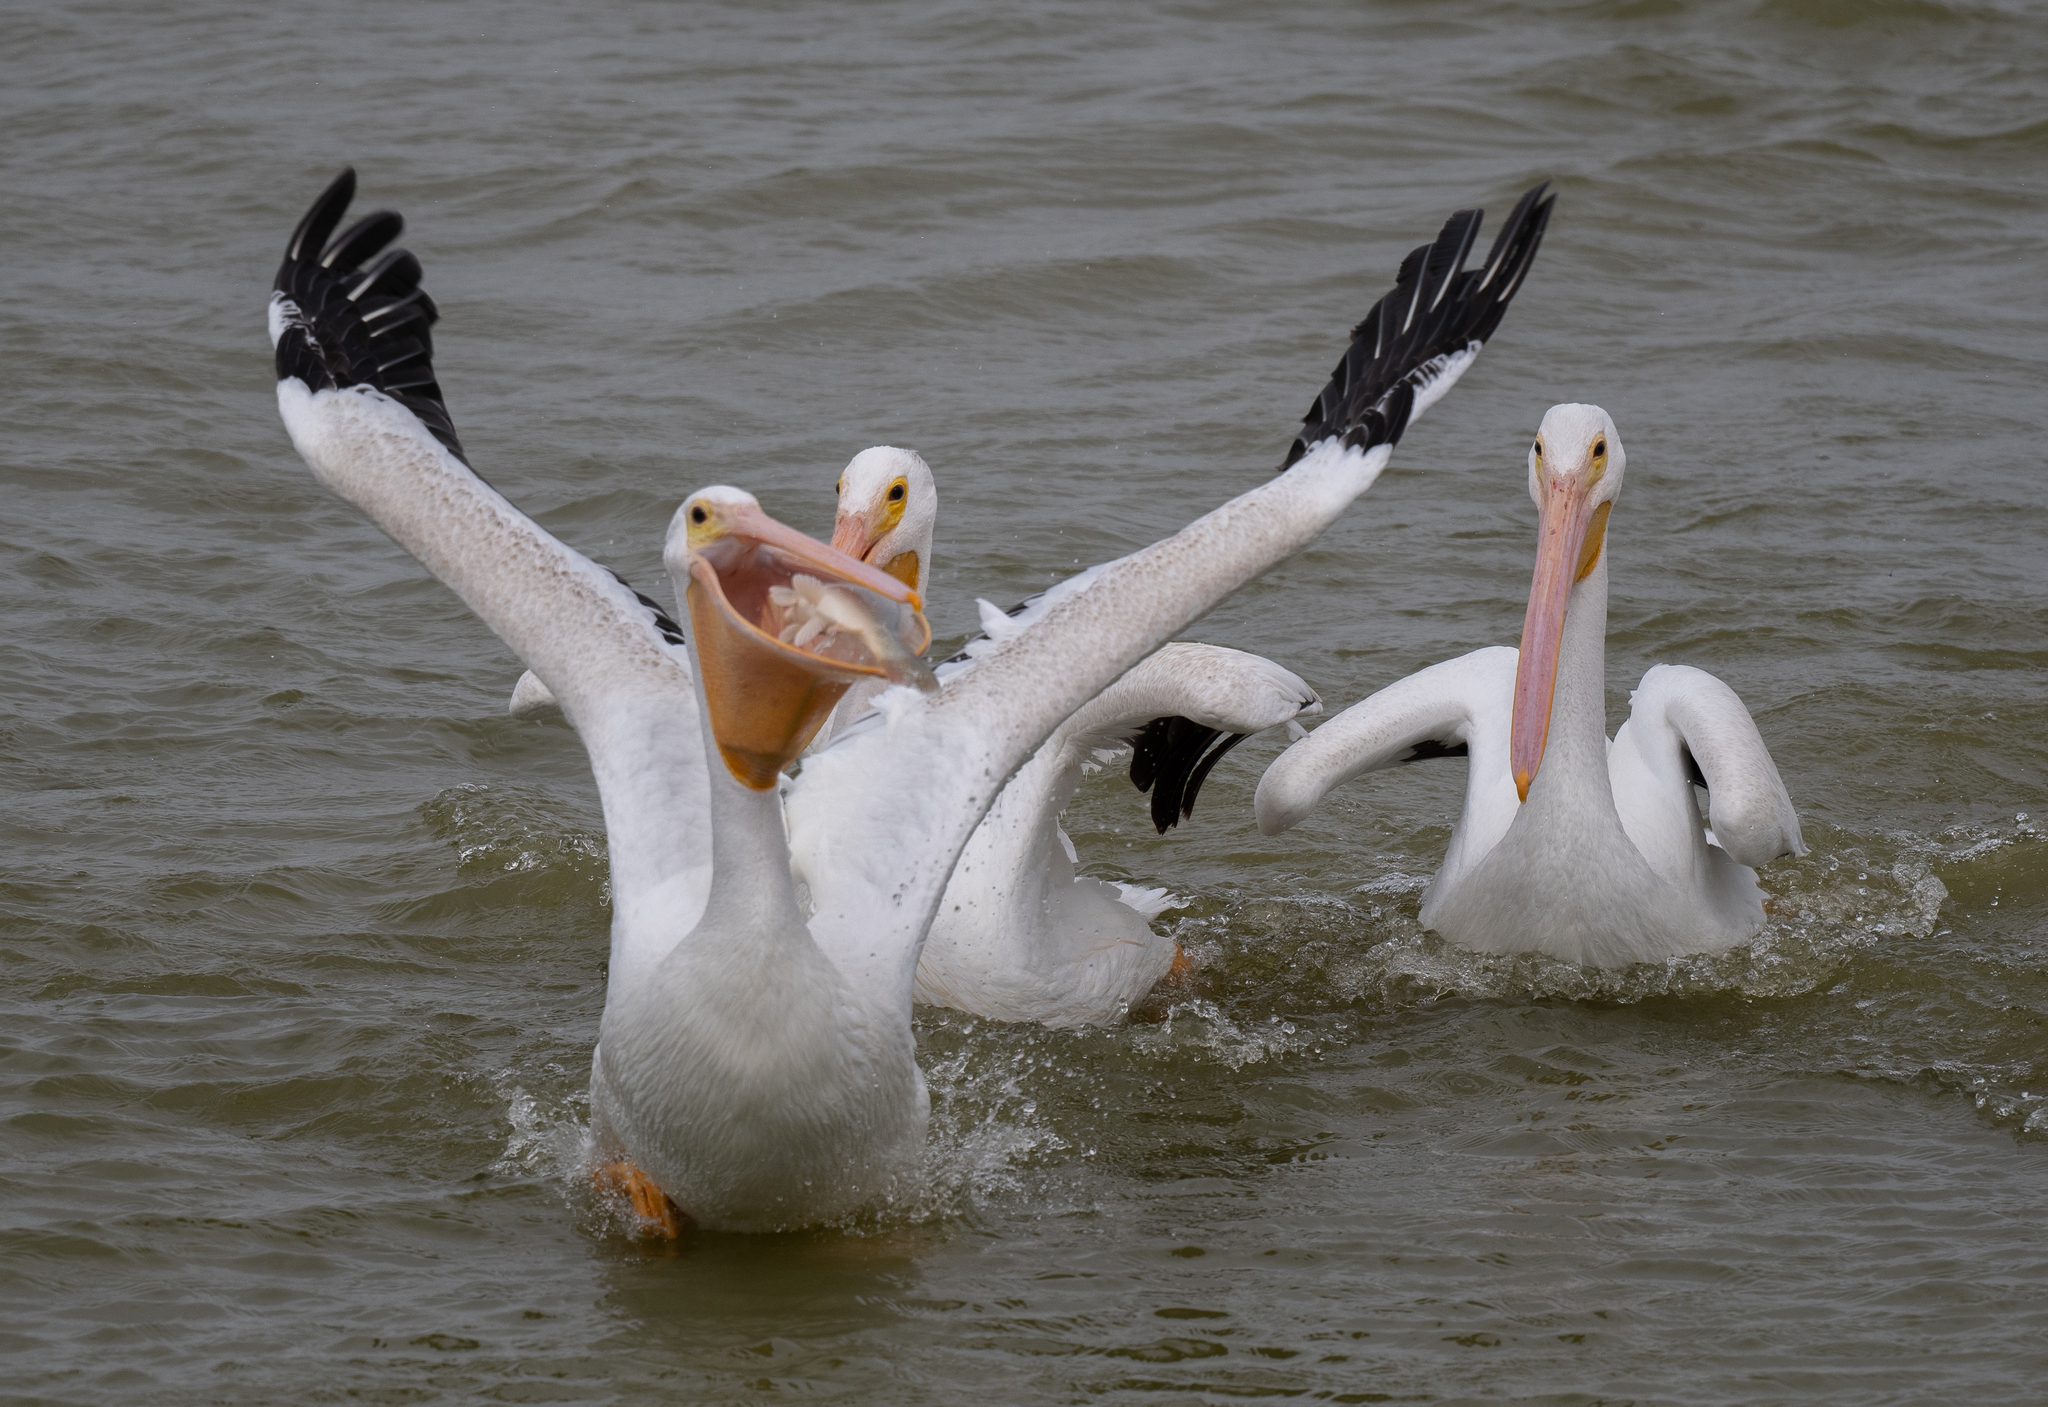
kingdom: Animalia
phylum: Chordata
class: Aves
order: Pelecaniformes
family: Pelecanidae
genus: Pelecanus
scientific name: Pelecanus erythrorhynchos
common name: American white pelican
